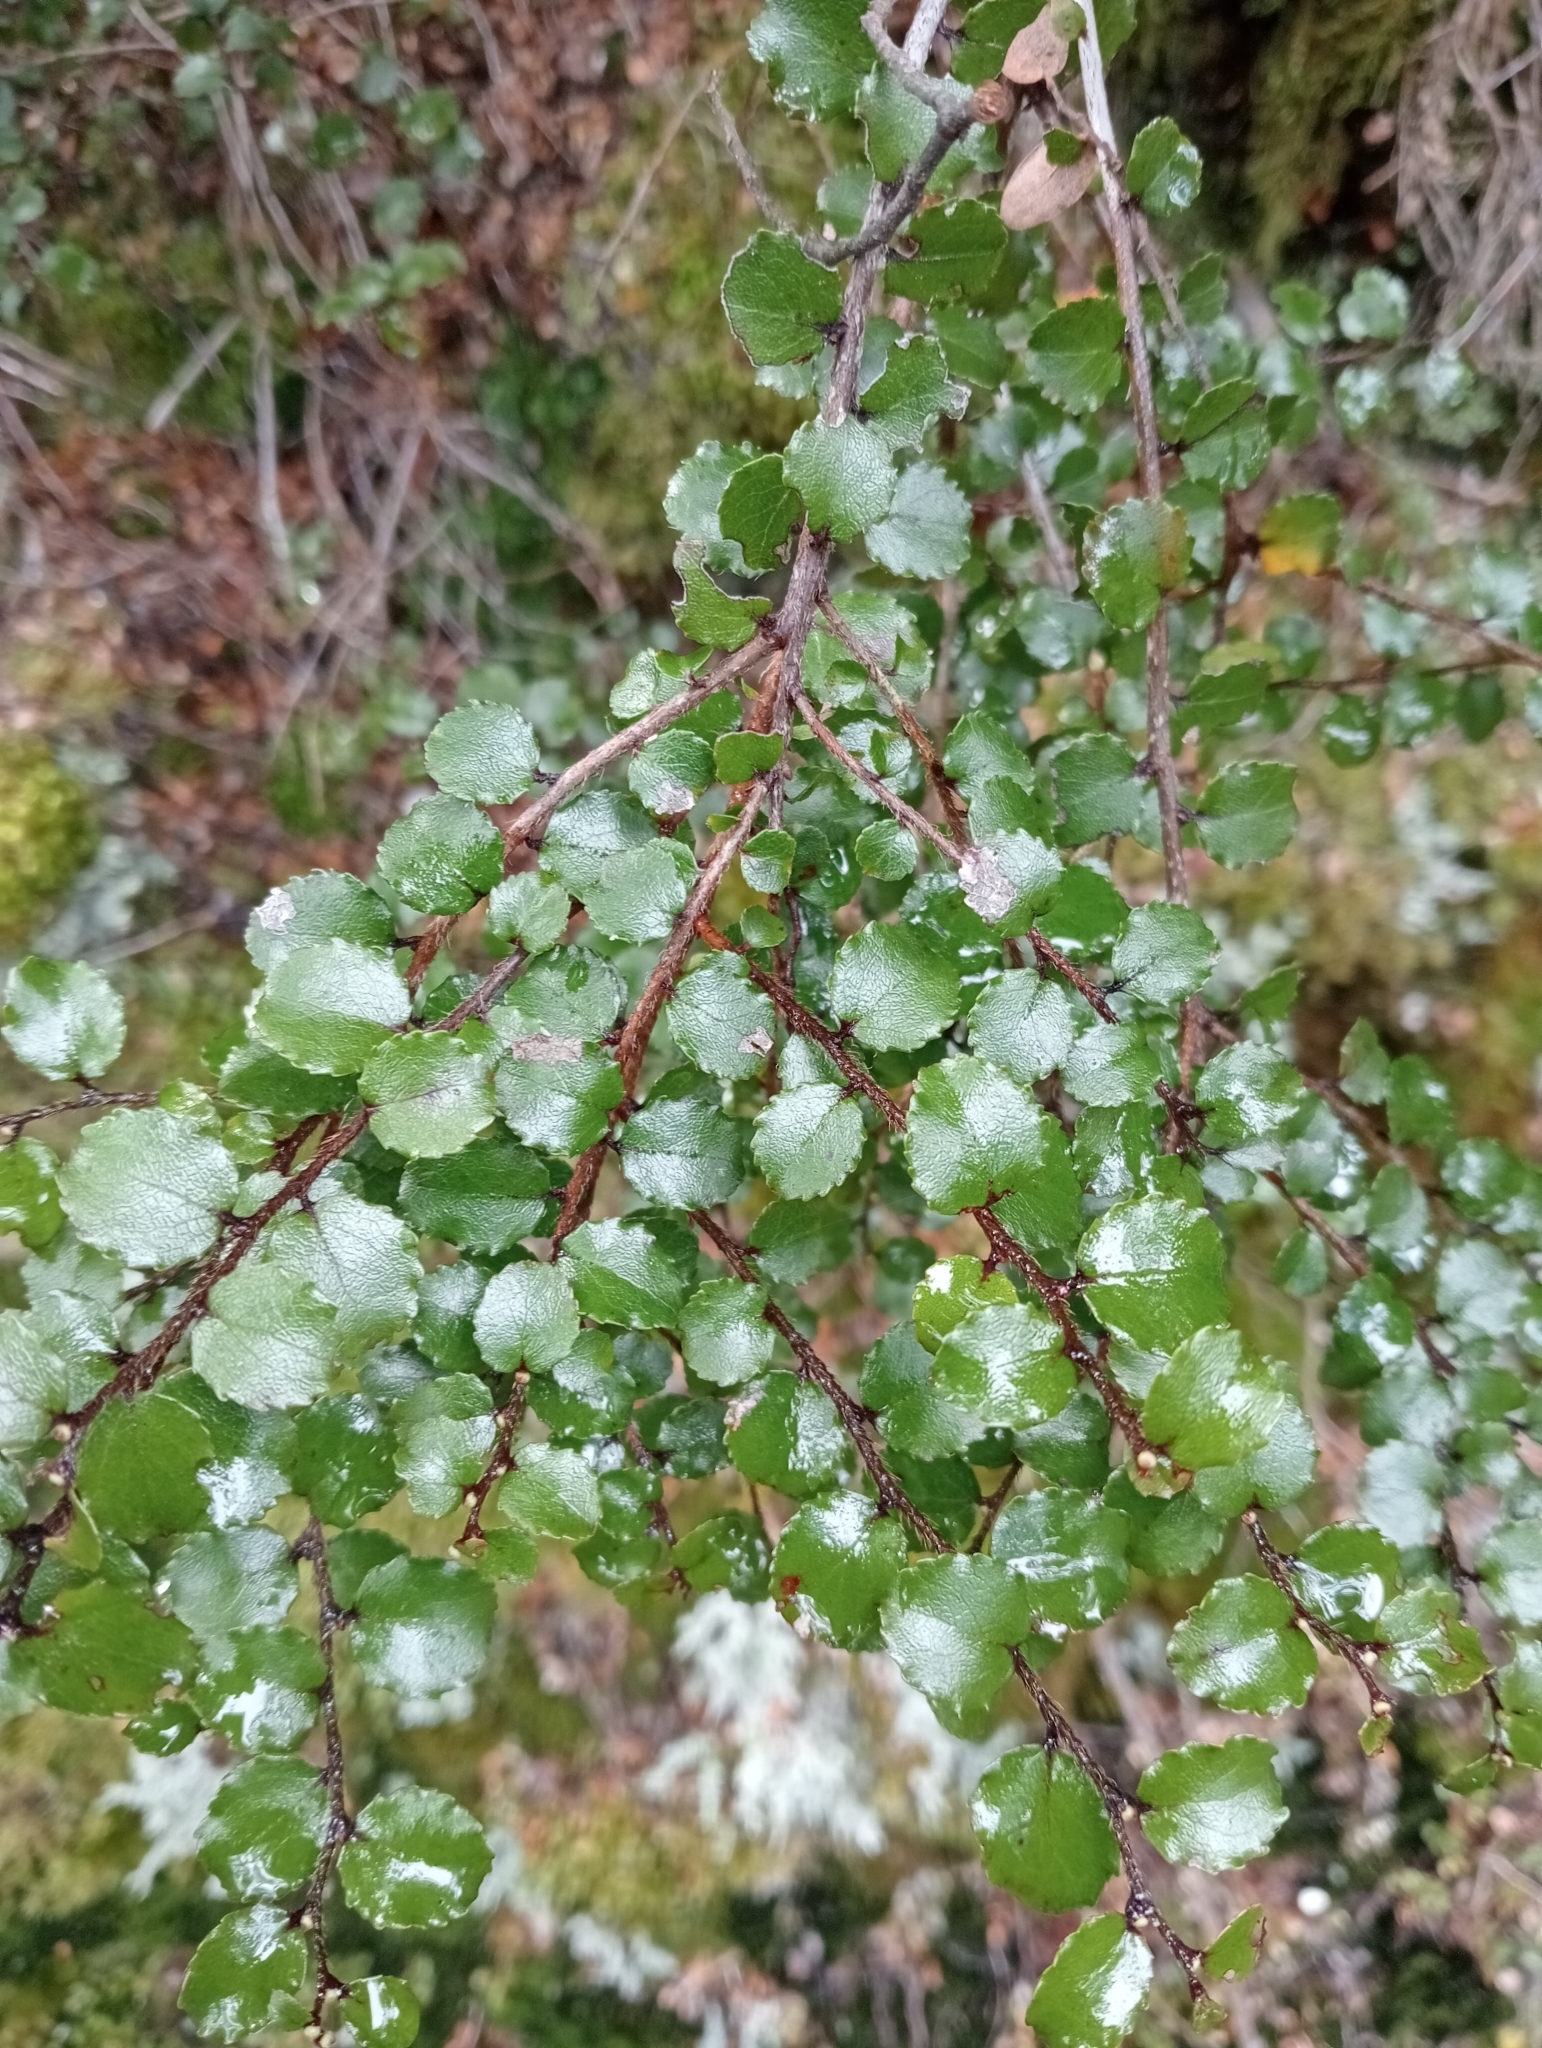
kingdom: Plantae
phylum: Tracheophyta
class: Magnoliopsida
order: Ericales
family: Ericaceae
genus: Gaultheria
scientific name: Gaultheria antipoda
